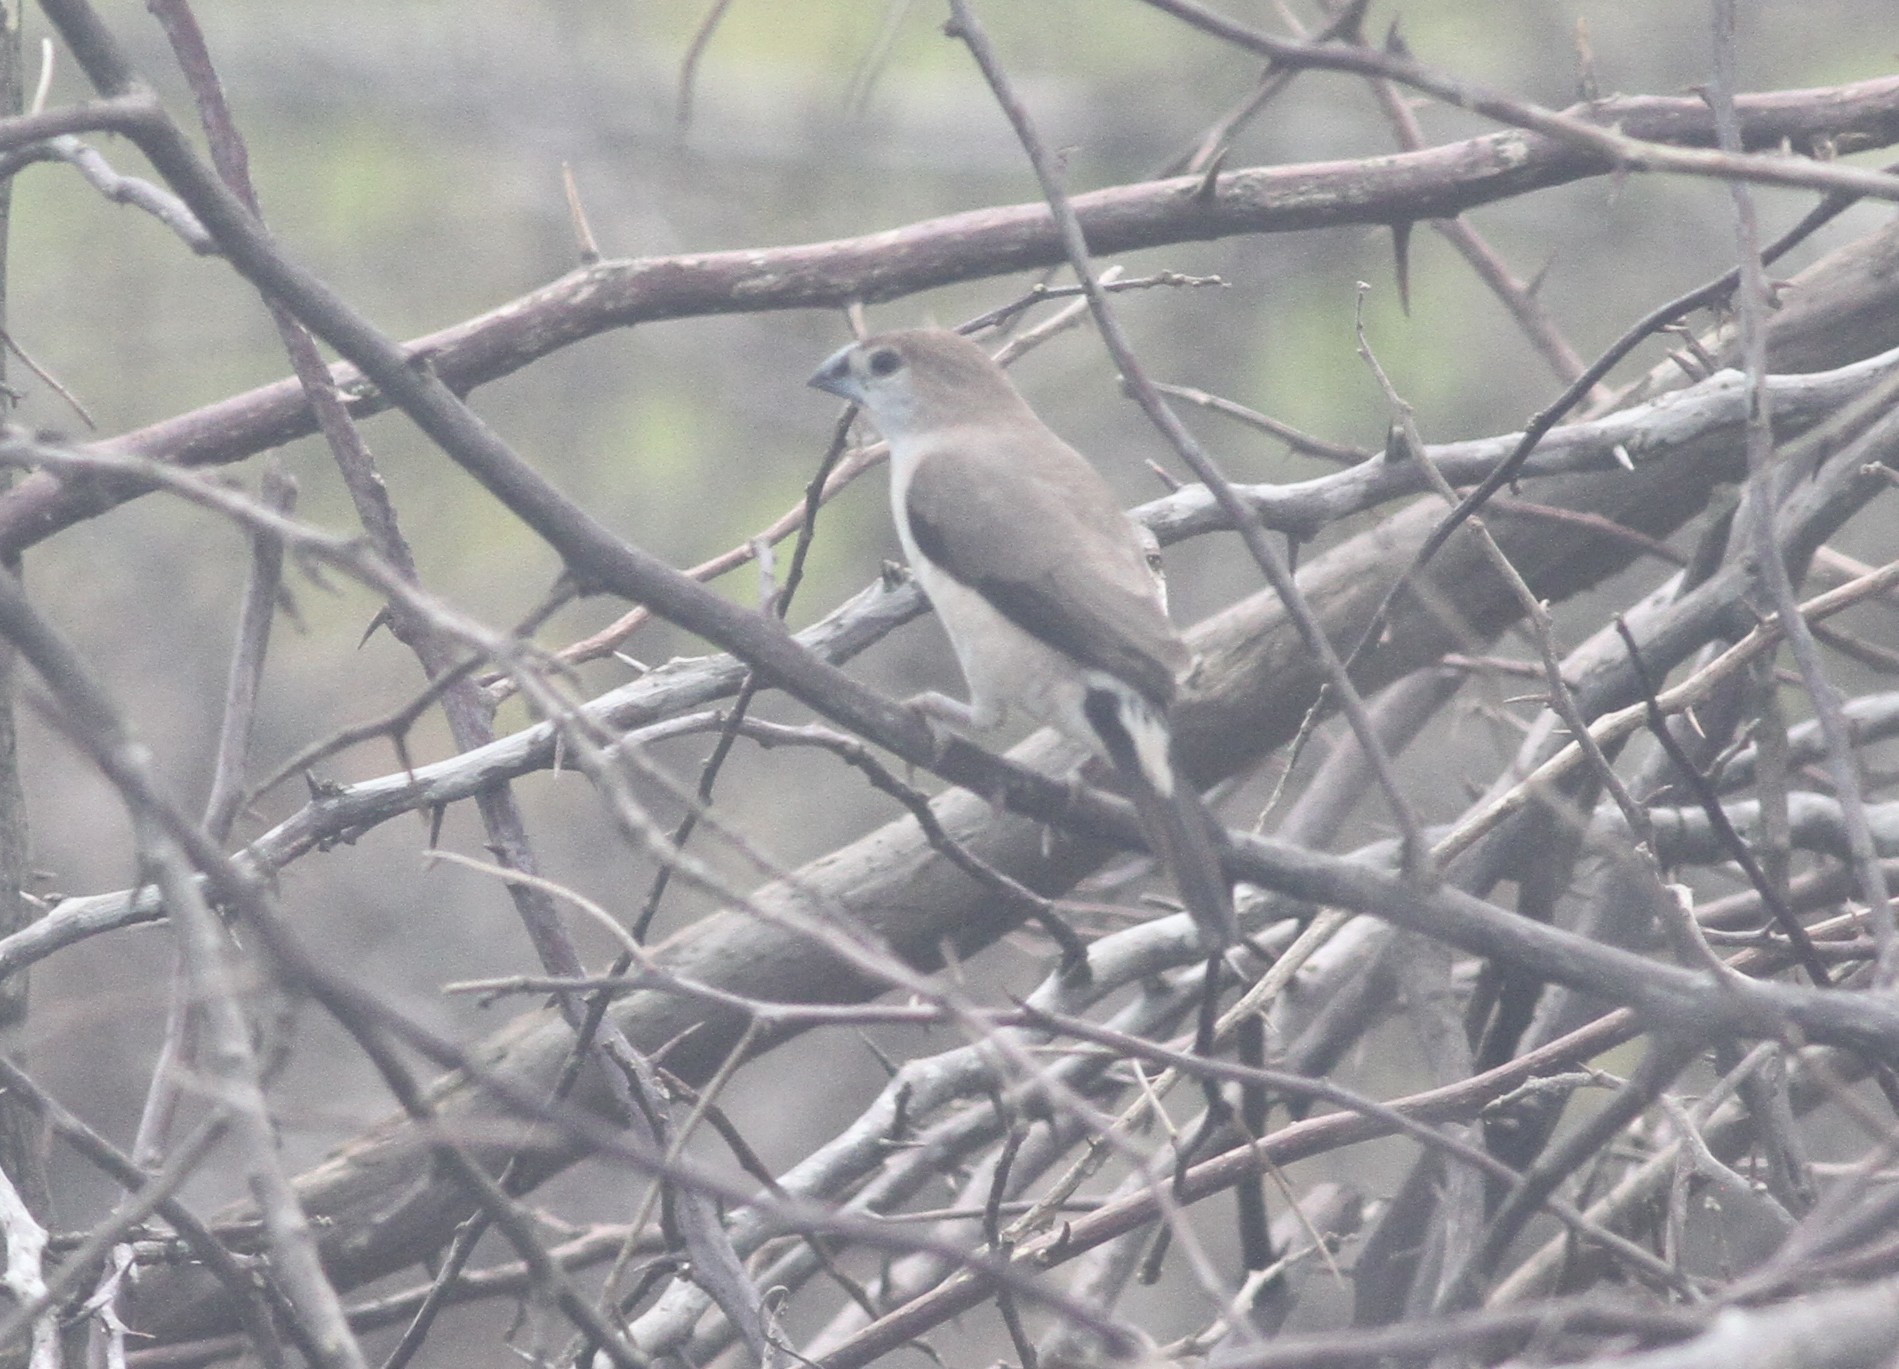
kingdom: Animalia
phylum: Chordata
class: Aves
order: Passeriformes
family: Estrildidae
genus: Euodice
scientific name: Euodice malabarica
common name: Indian silverbill
